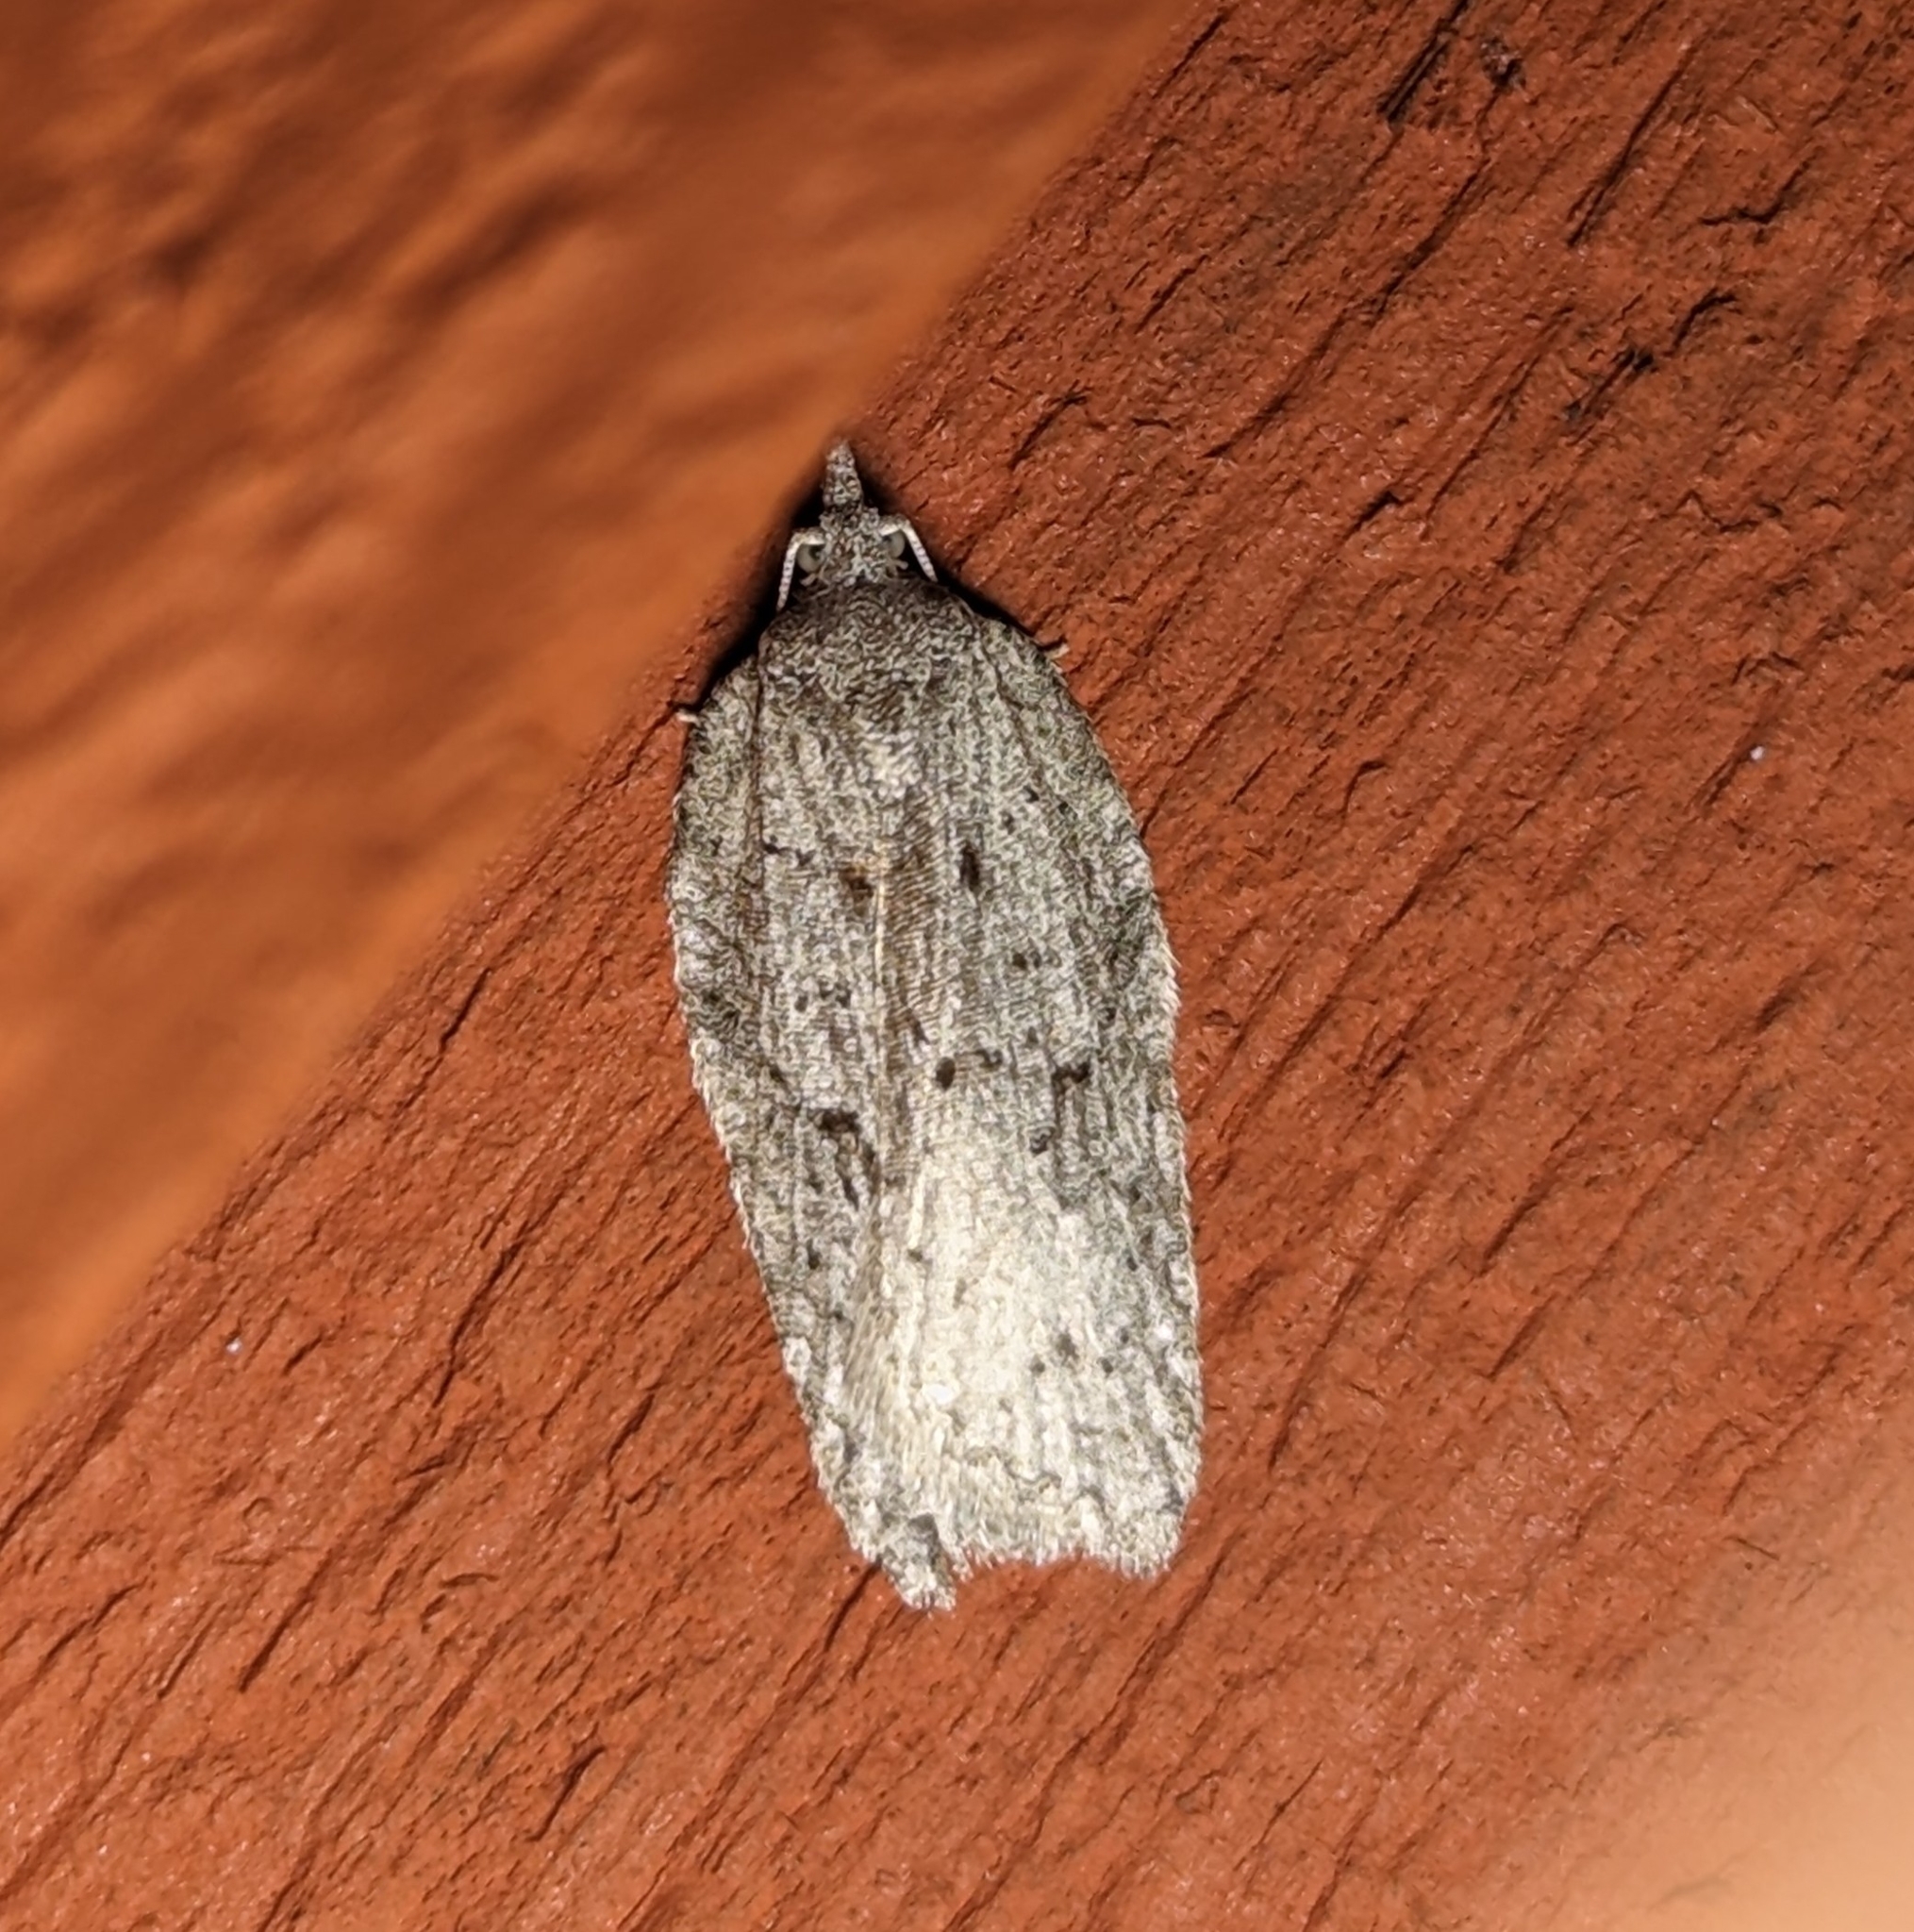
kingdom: Animalia
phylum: Arthropoda
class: Insecta
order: Lepidoptera
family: Tortricidae
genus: Acleris
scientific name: Acleris maximana
